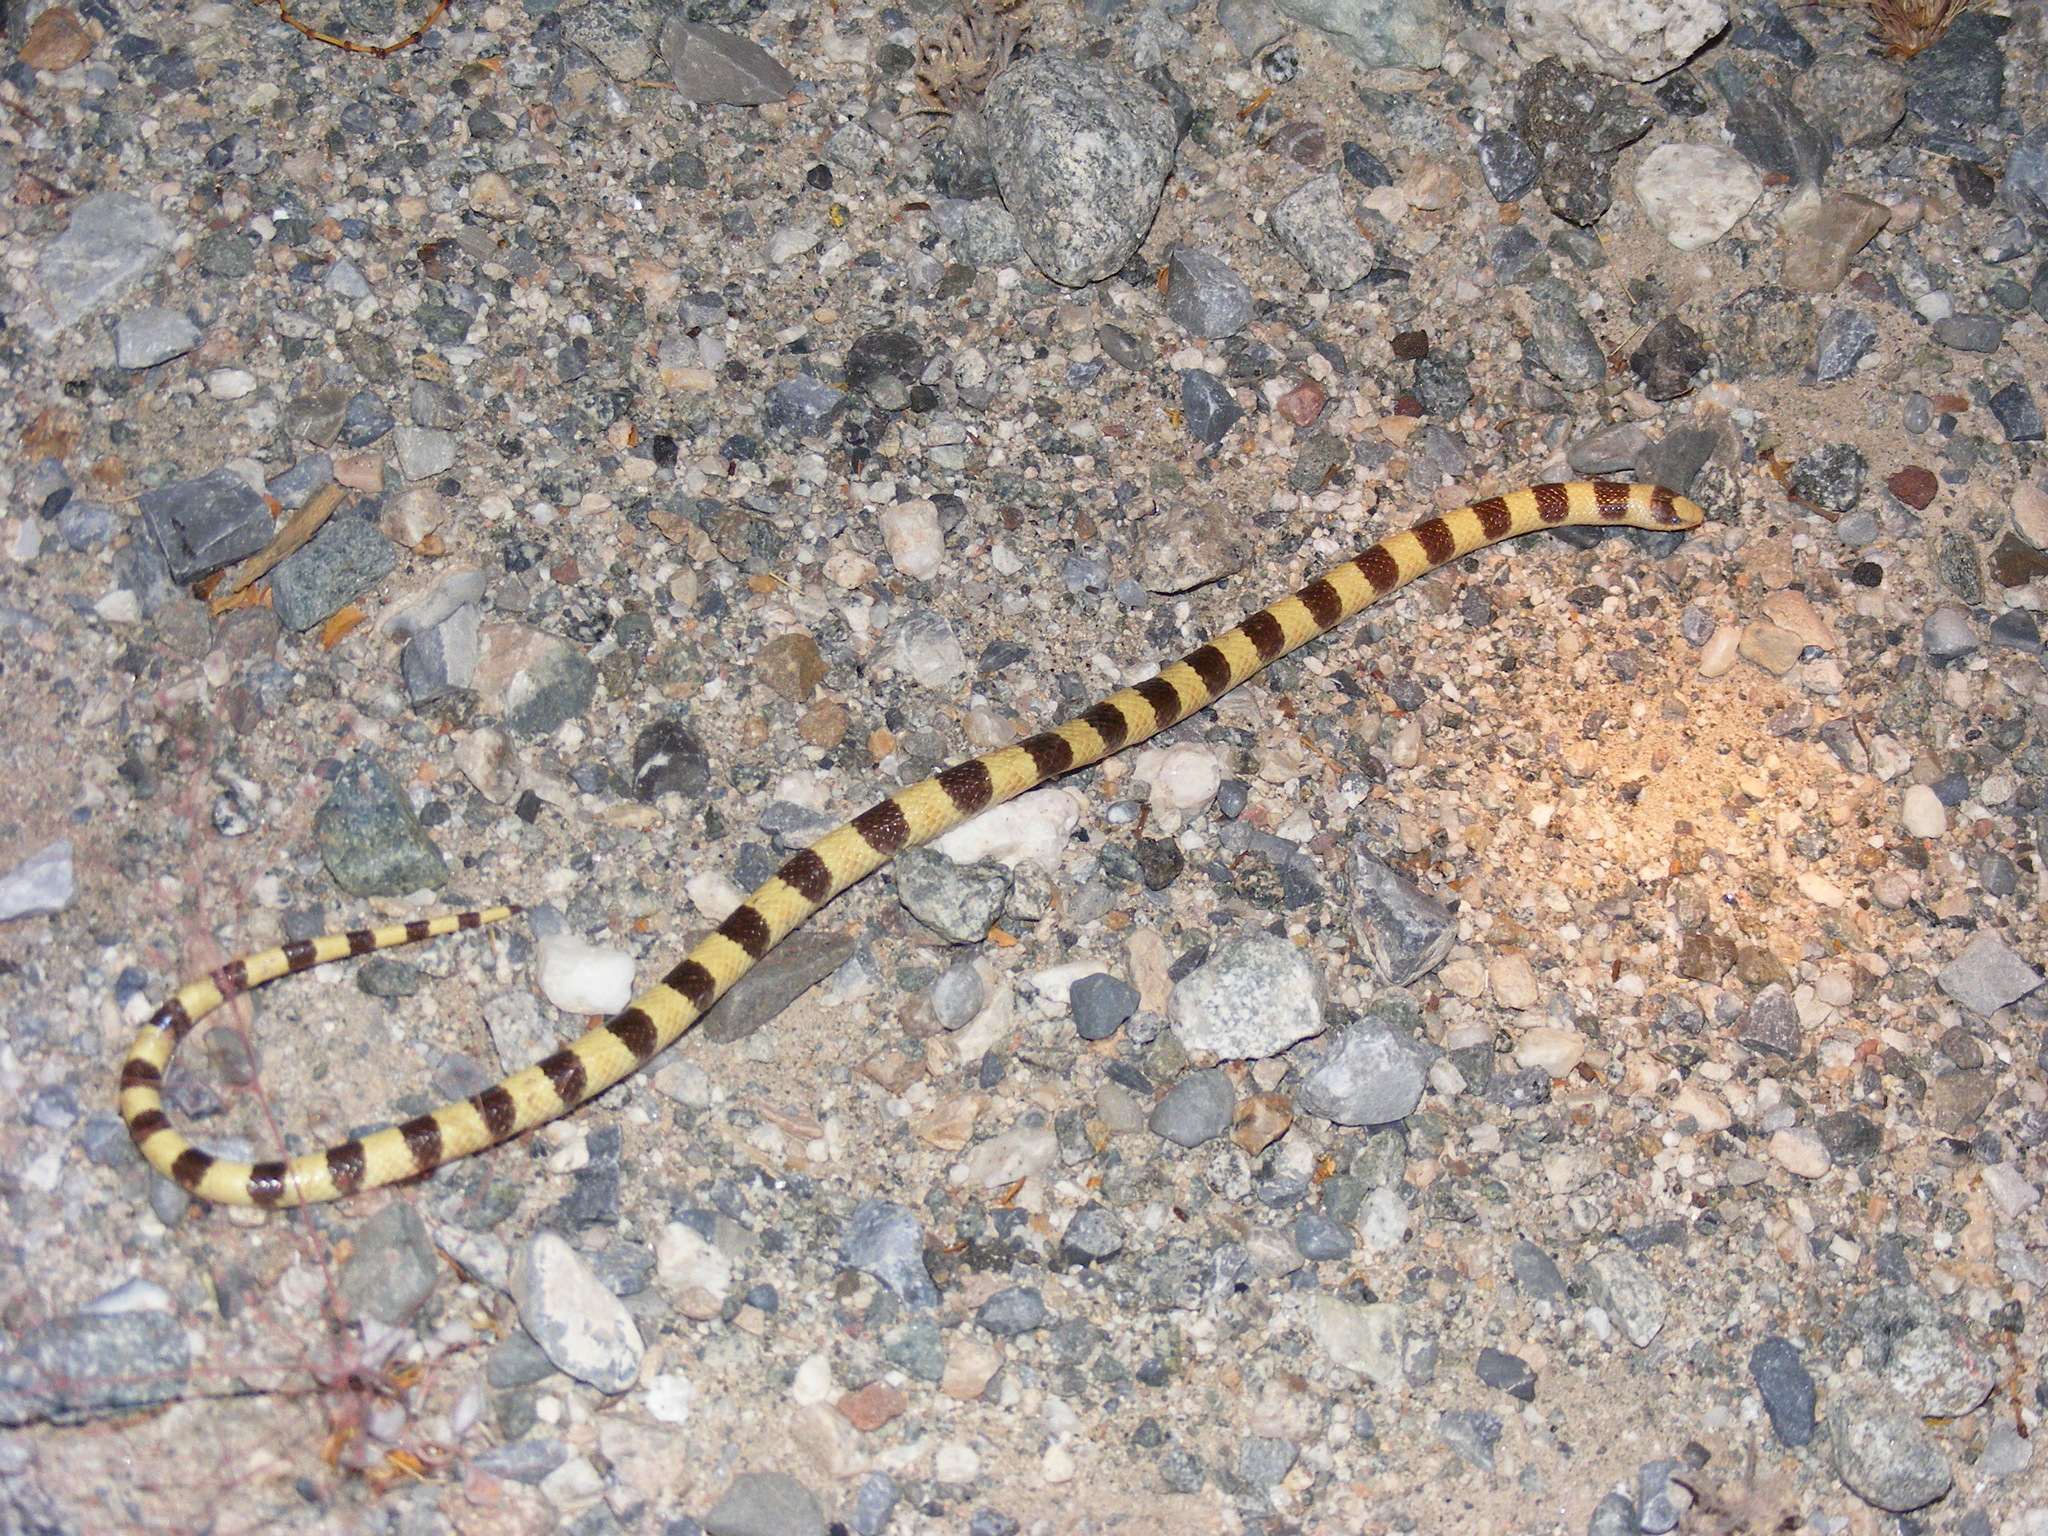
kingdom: Animalia
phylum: Chordata
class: Squamata
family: Colubridae
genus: Sonora
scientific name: Sonora occipitalis
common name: Western shovelnose snake
